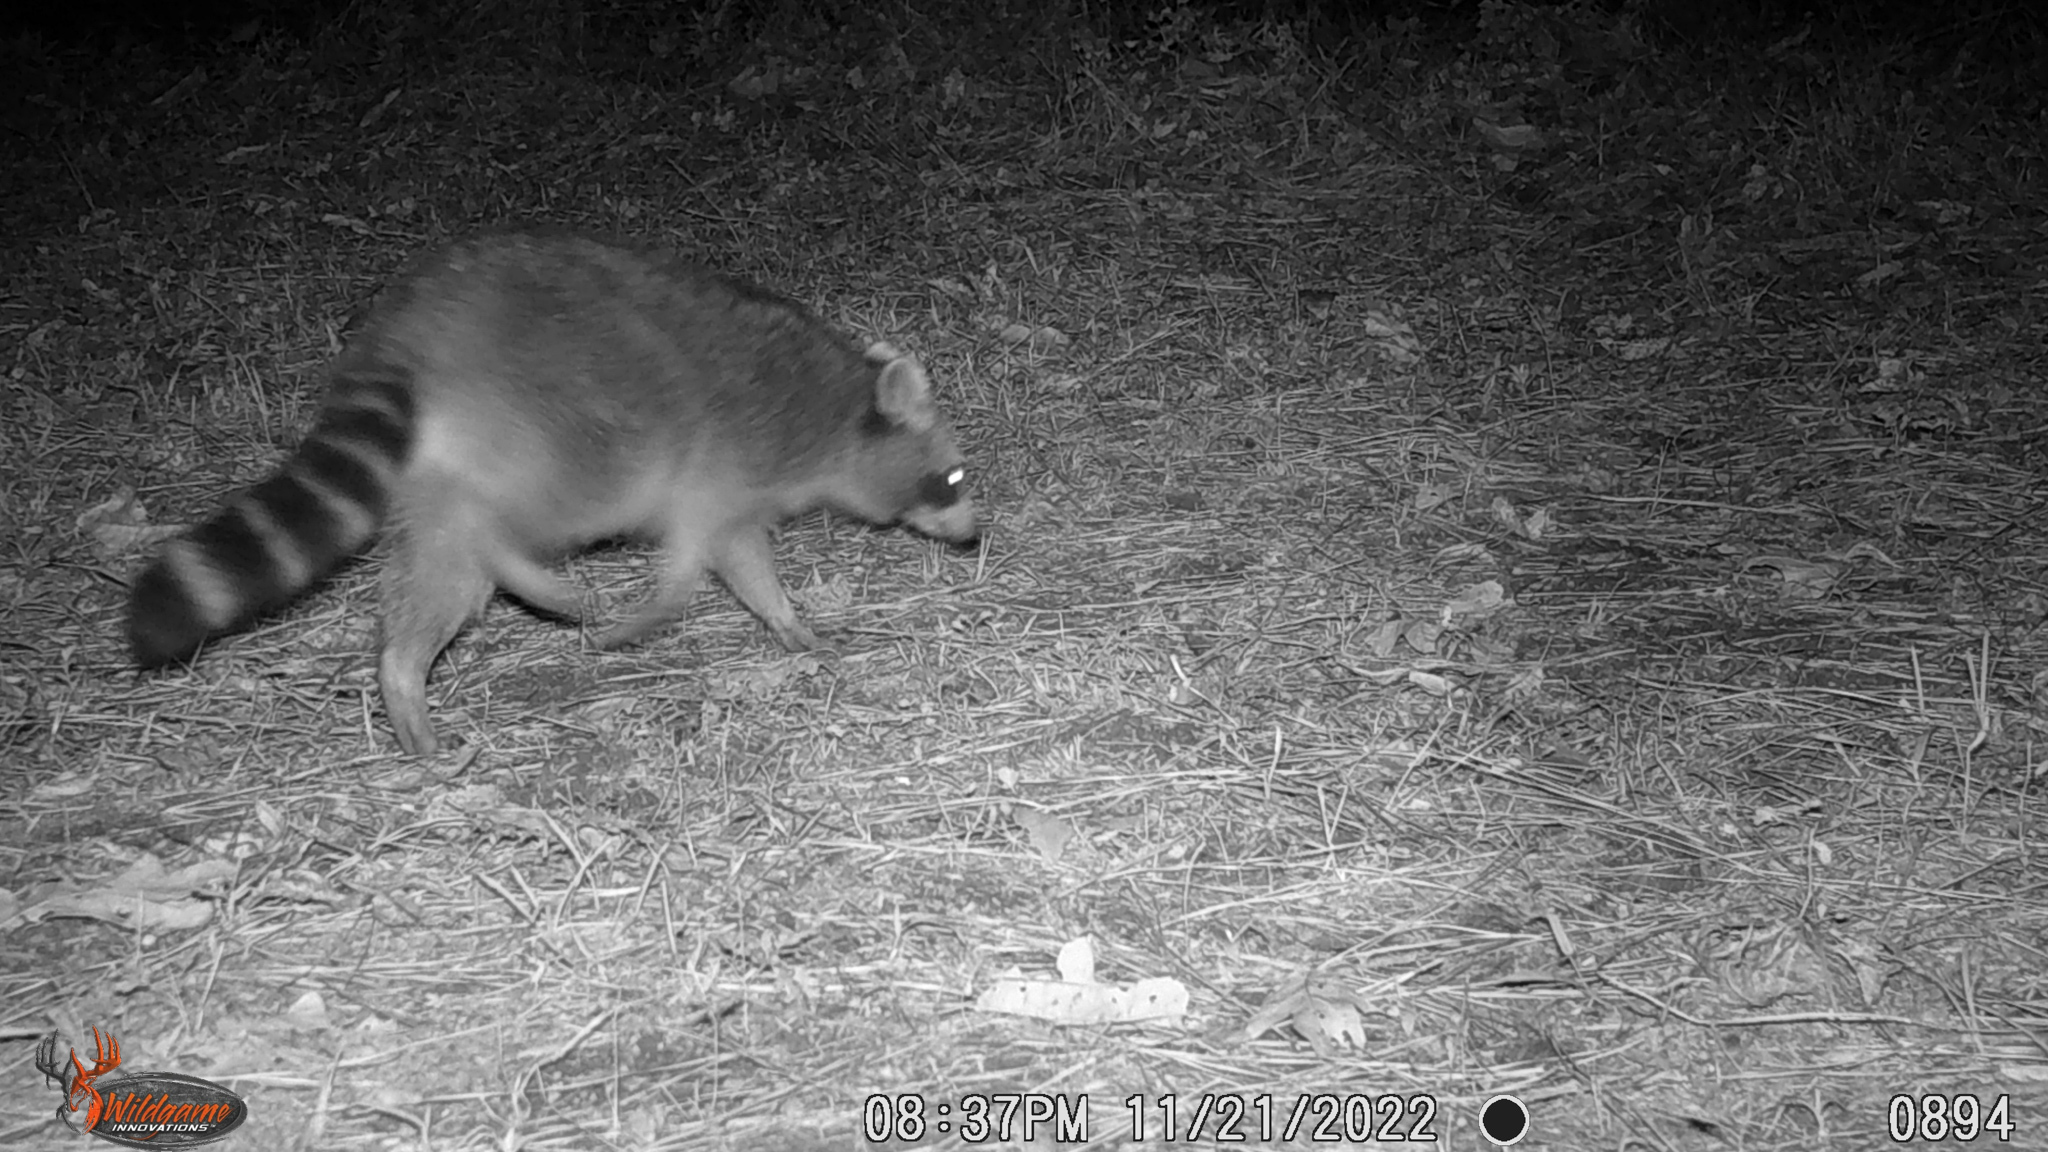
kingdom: Animalia
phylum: Chordata
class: Mammalia
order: Carnivora
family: Procyonidae
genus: Procyon
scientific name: Procyon lotor
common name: Raccoon
